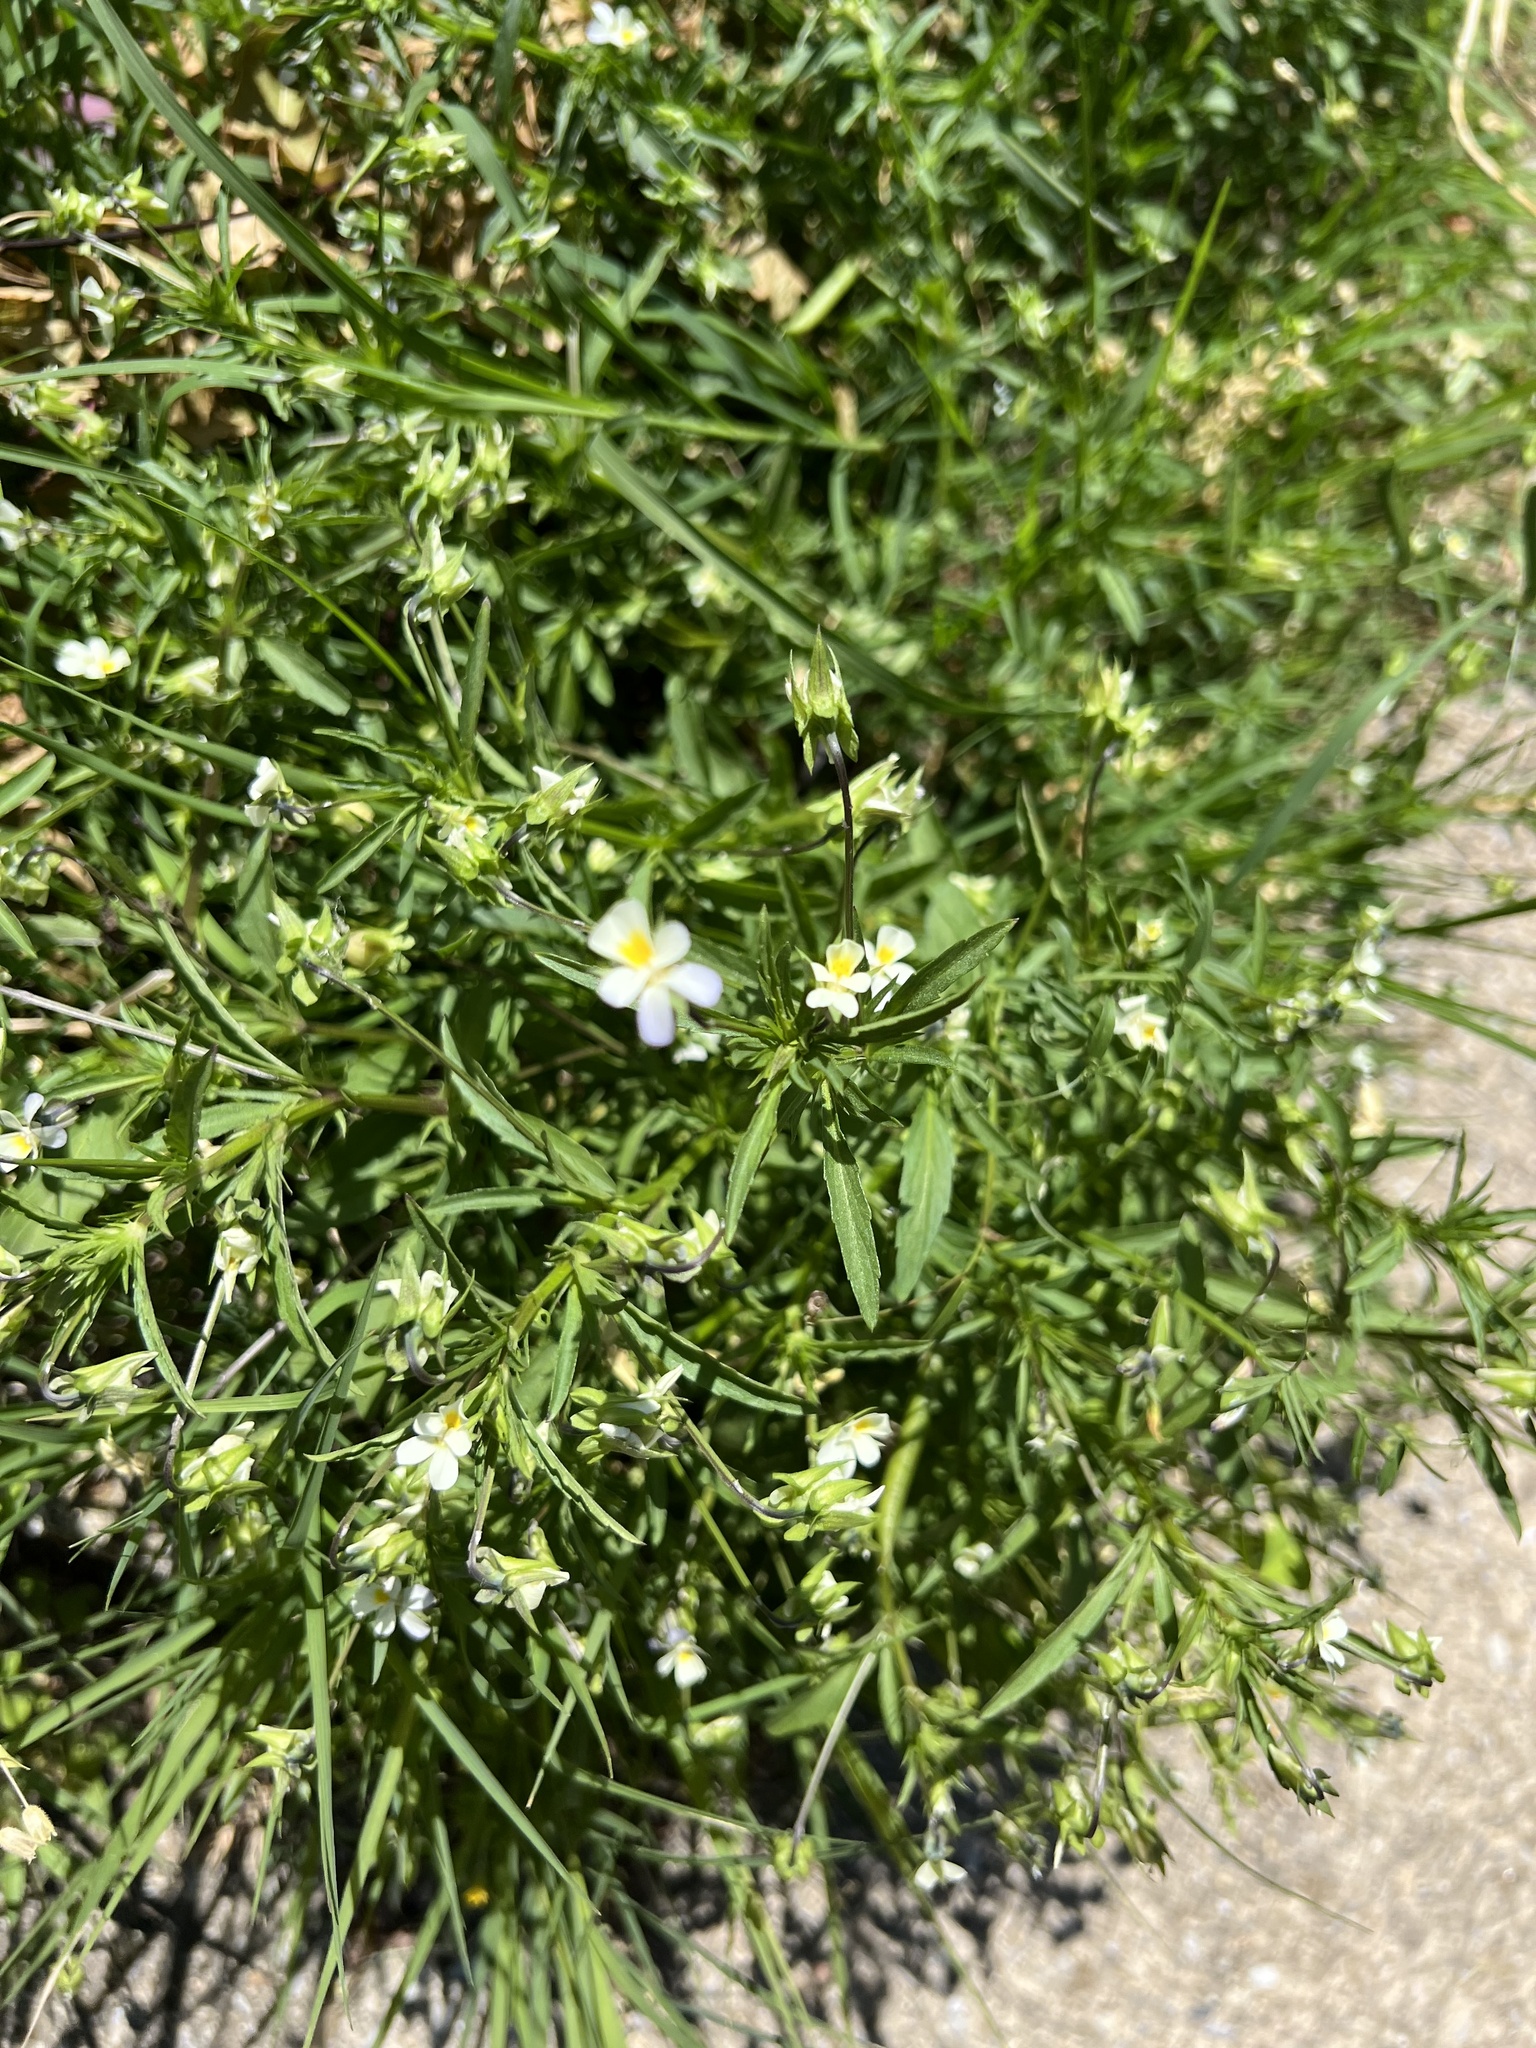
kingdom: Plantae
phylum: Tracheophyta
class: Magnoliopsida
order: Malpighiales
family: Violaceae
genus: Viola
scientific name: Viola arvensis
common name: Field pansy
